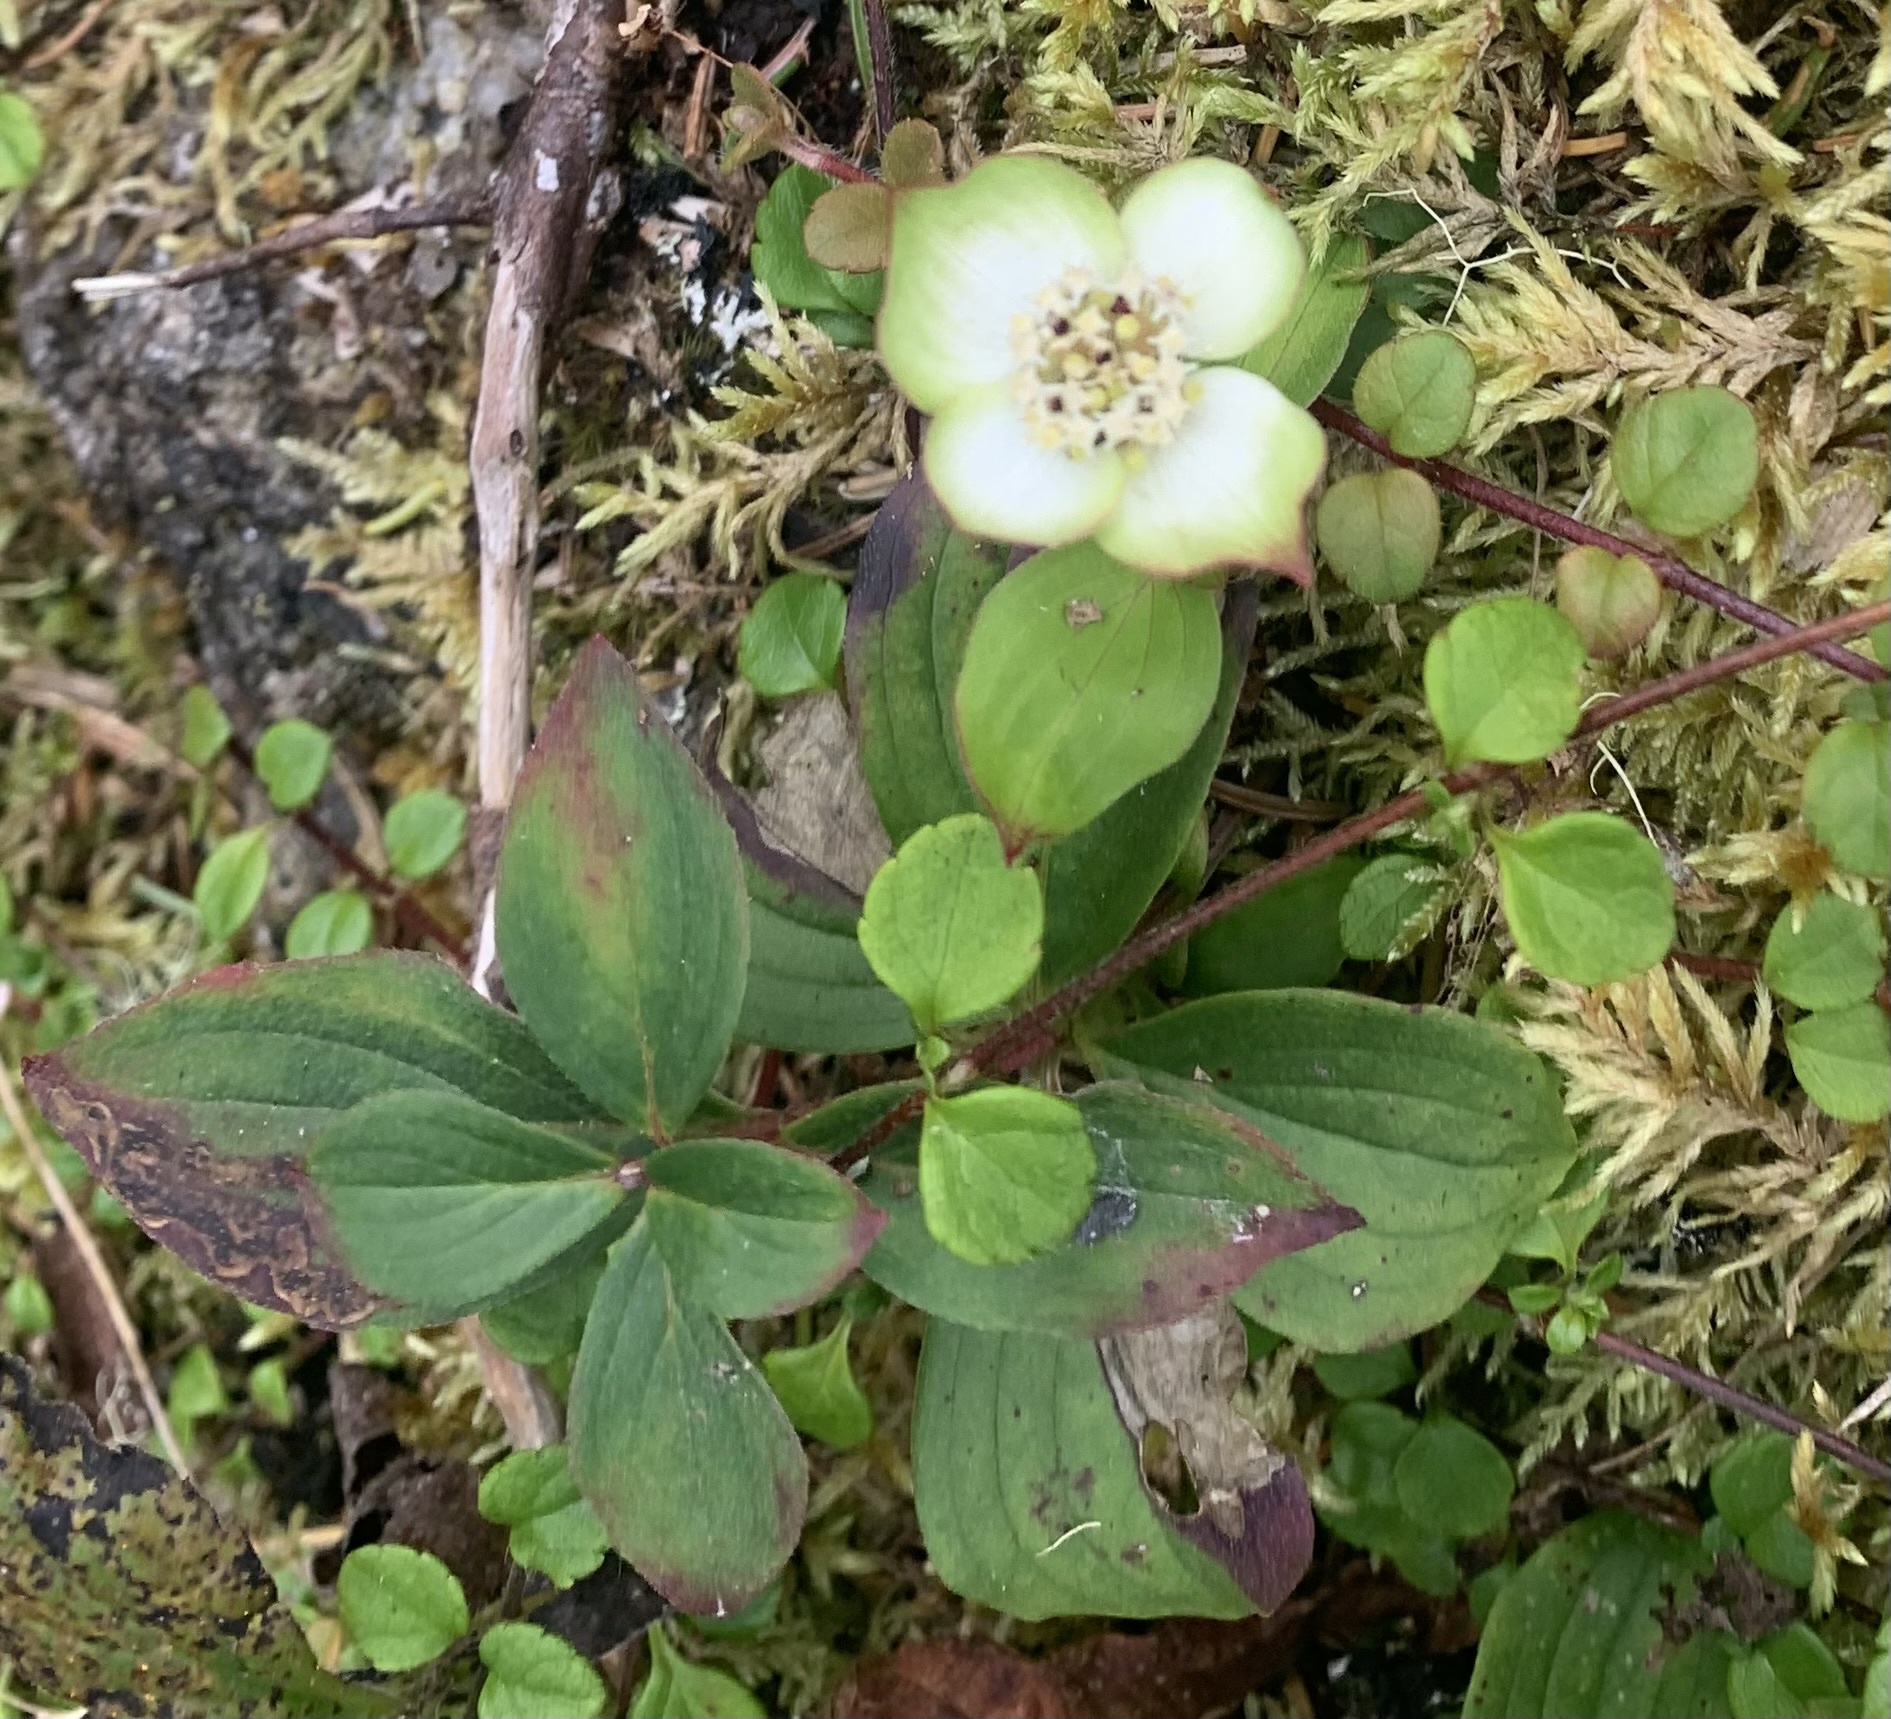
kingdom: Plantae
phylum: Tracheophyta
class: Magnoliopsida
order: Cornales
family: Cornaceae
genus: Cornus
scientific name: Cornus canadensis
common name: Creeping dogwood
